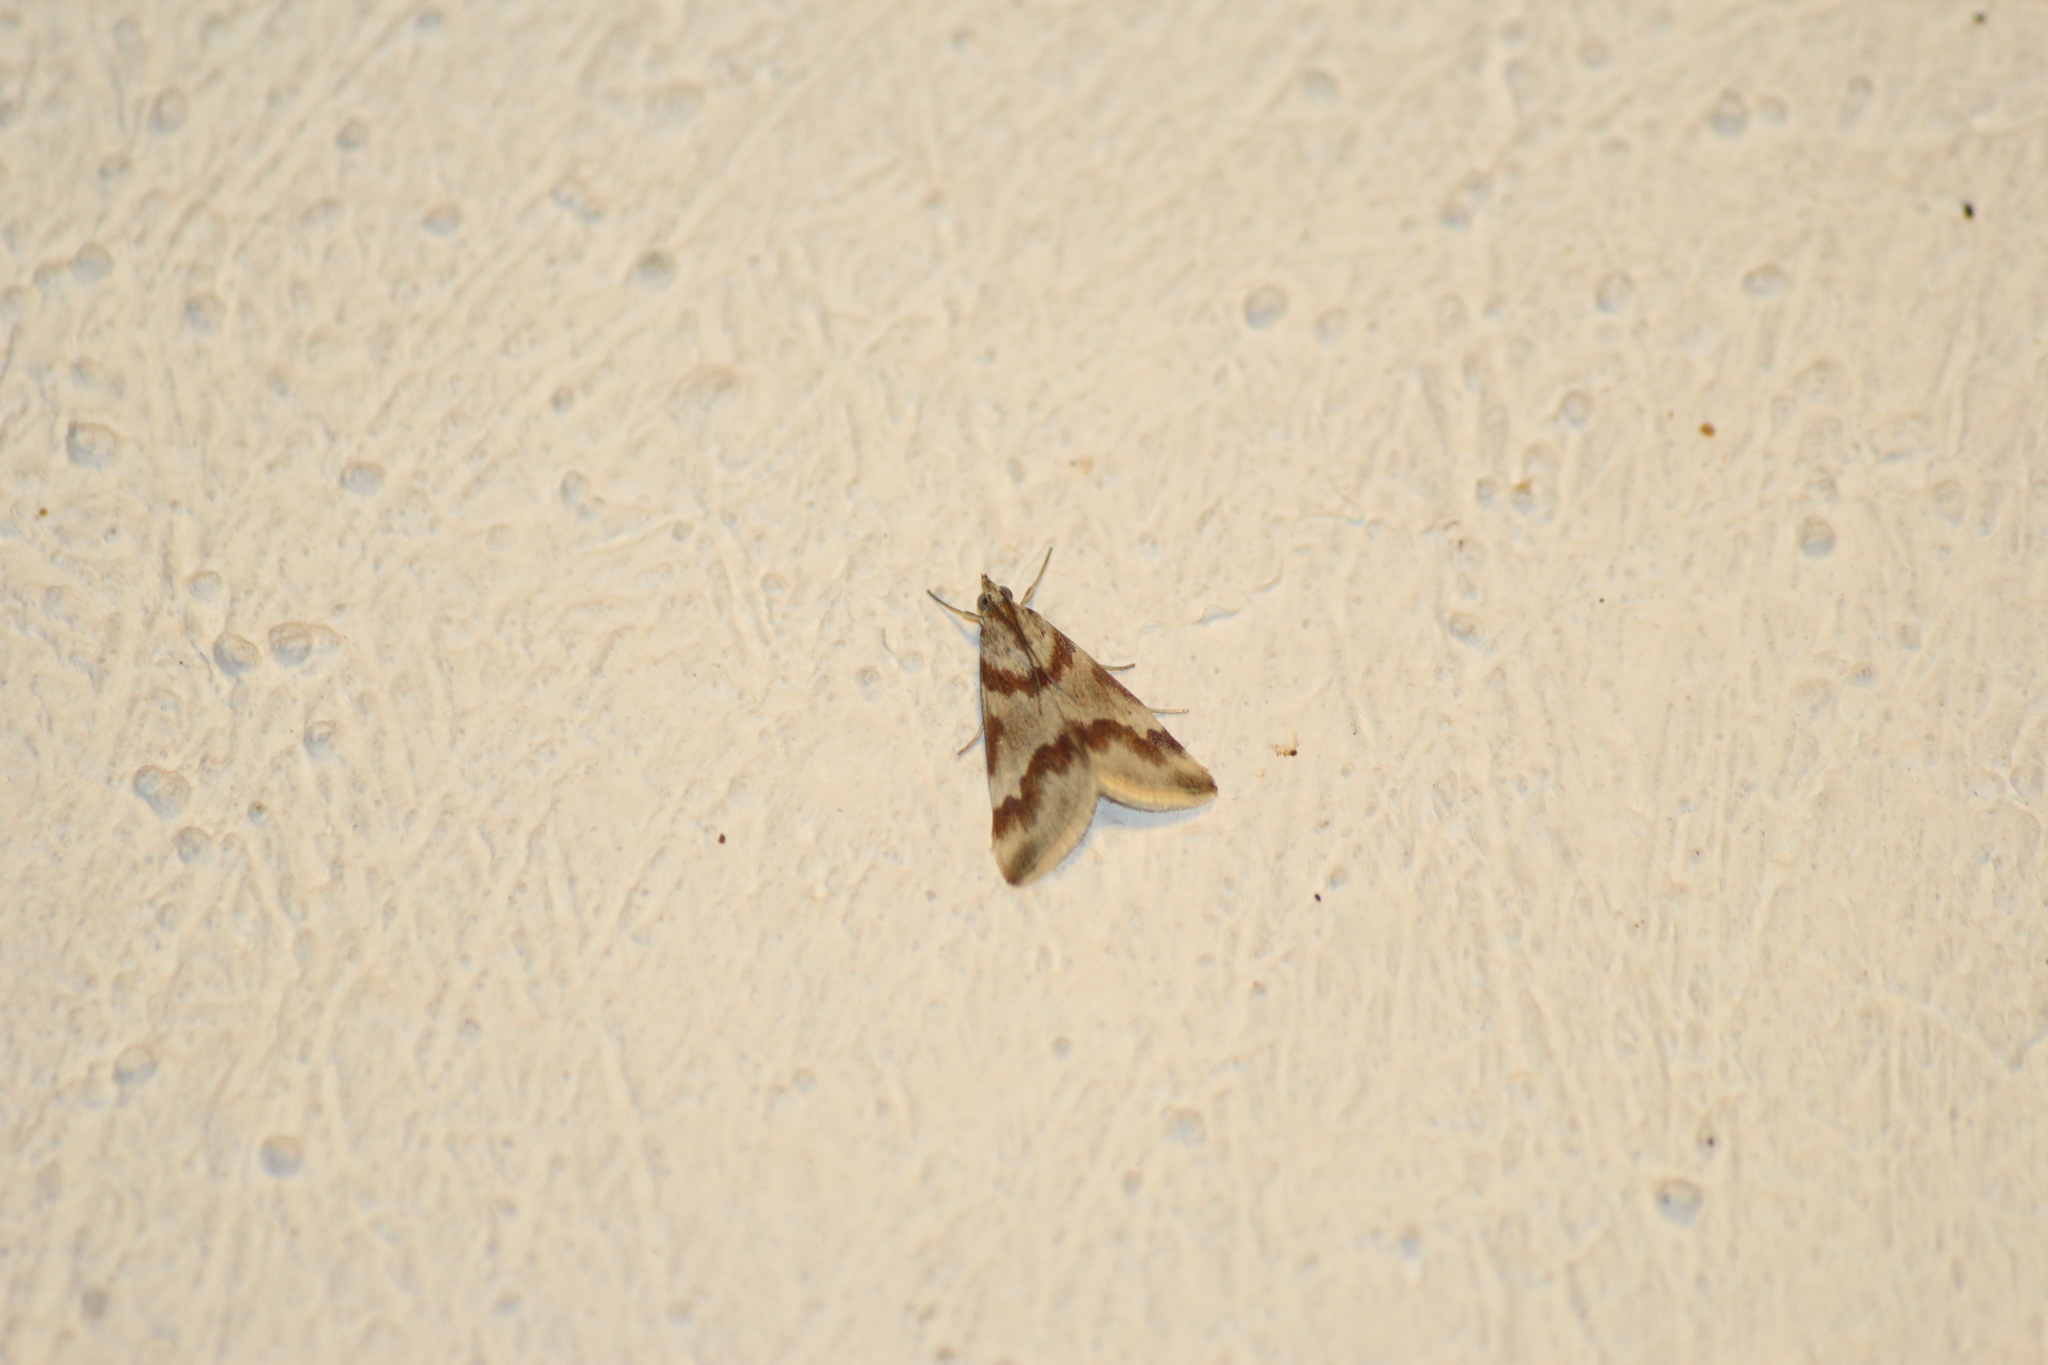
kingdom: Animalia
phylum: Arthropoda
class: Insecta
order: Lepidoptera
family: Crambidae
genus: Noctuelia
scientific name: Noctuelia Mimoschinia rufofascialis
